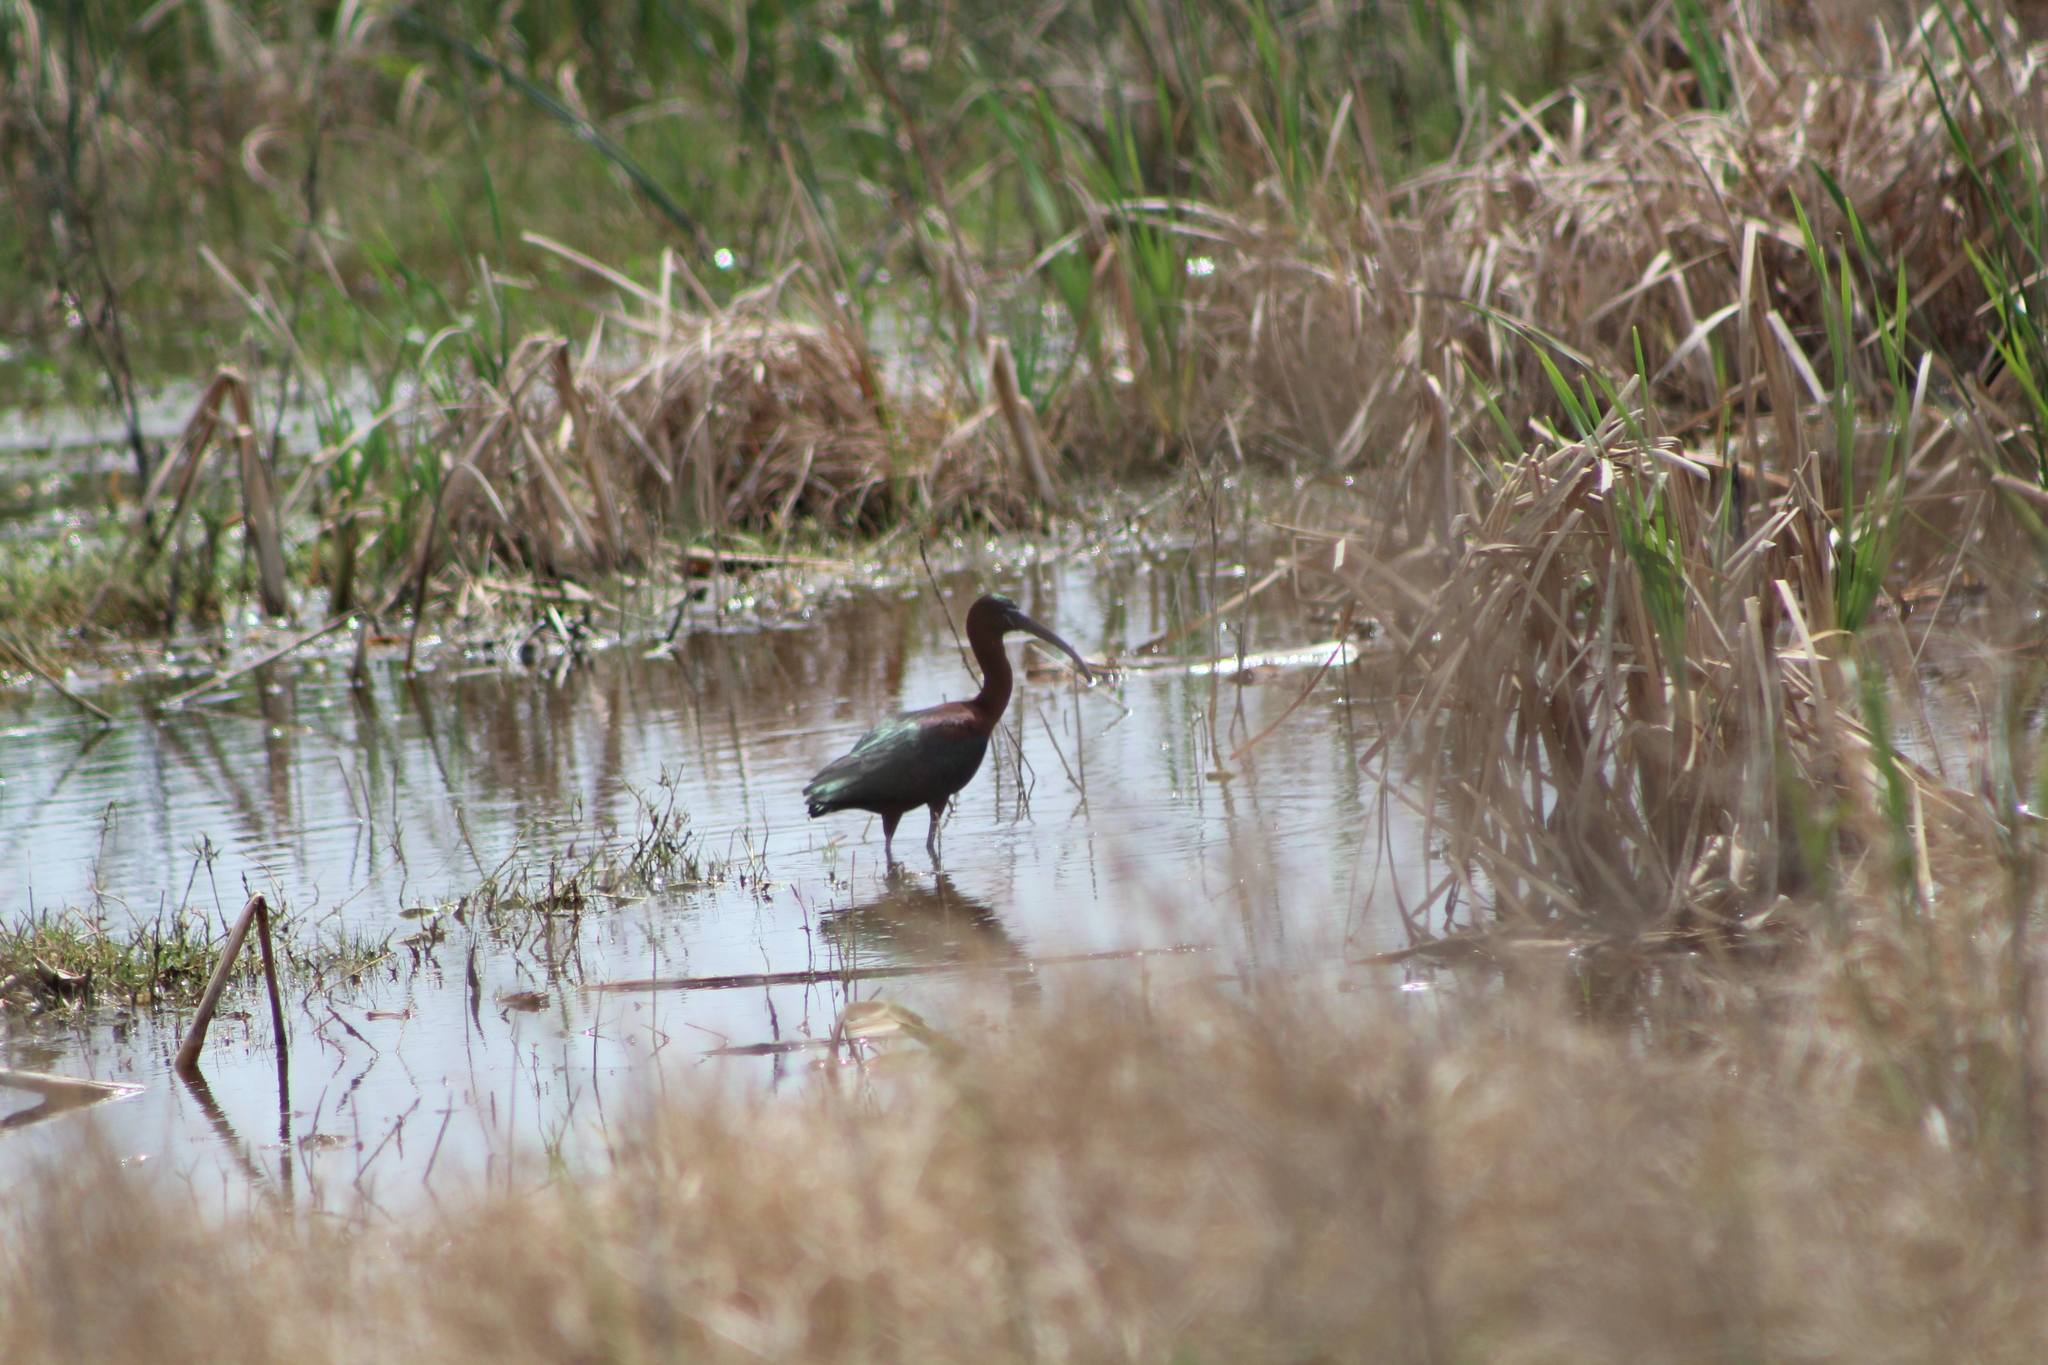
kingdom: Animalia
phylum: Chordata
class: Aves
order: Pelecaniformes
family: Threskiornithidae
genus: Plegadis
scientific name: Plegadis falcinellus
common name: Glossy ibis
